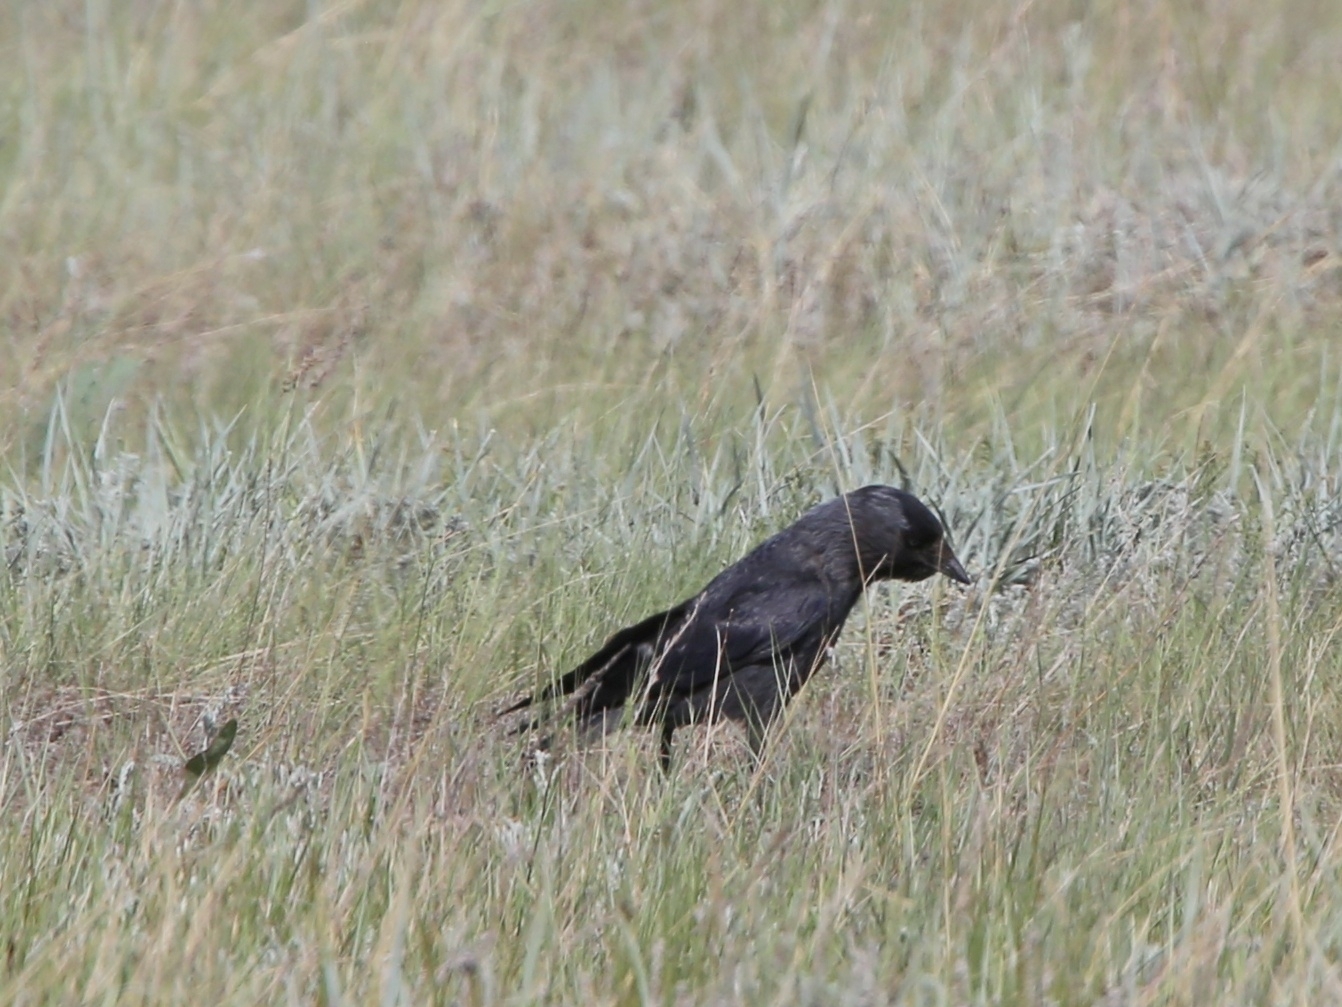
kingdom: Animalia
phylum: Chordata
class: Aves
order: Passeriformes
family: Corvidae
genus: Coloeus
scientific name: Coloeus monedula
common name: Western jackdaw
